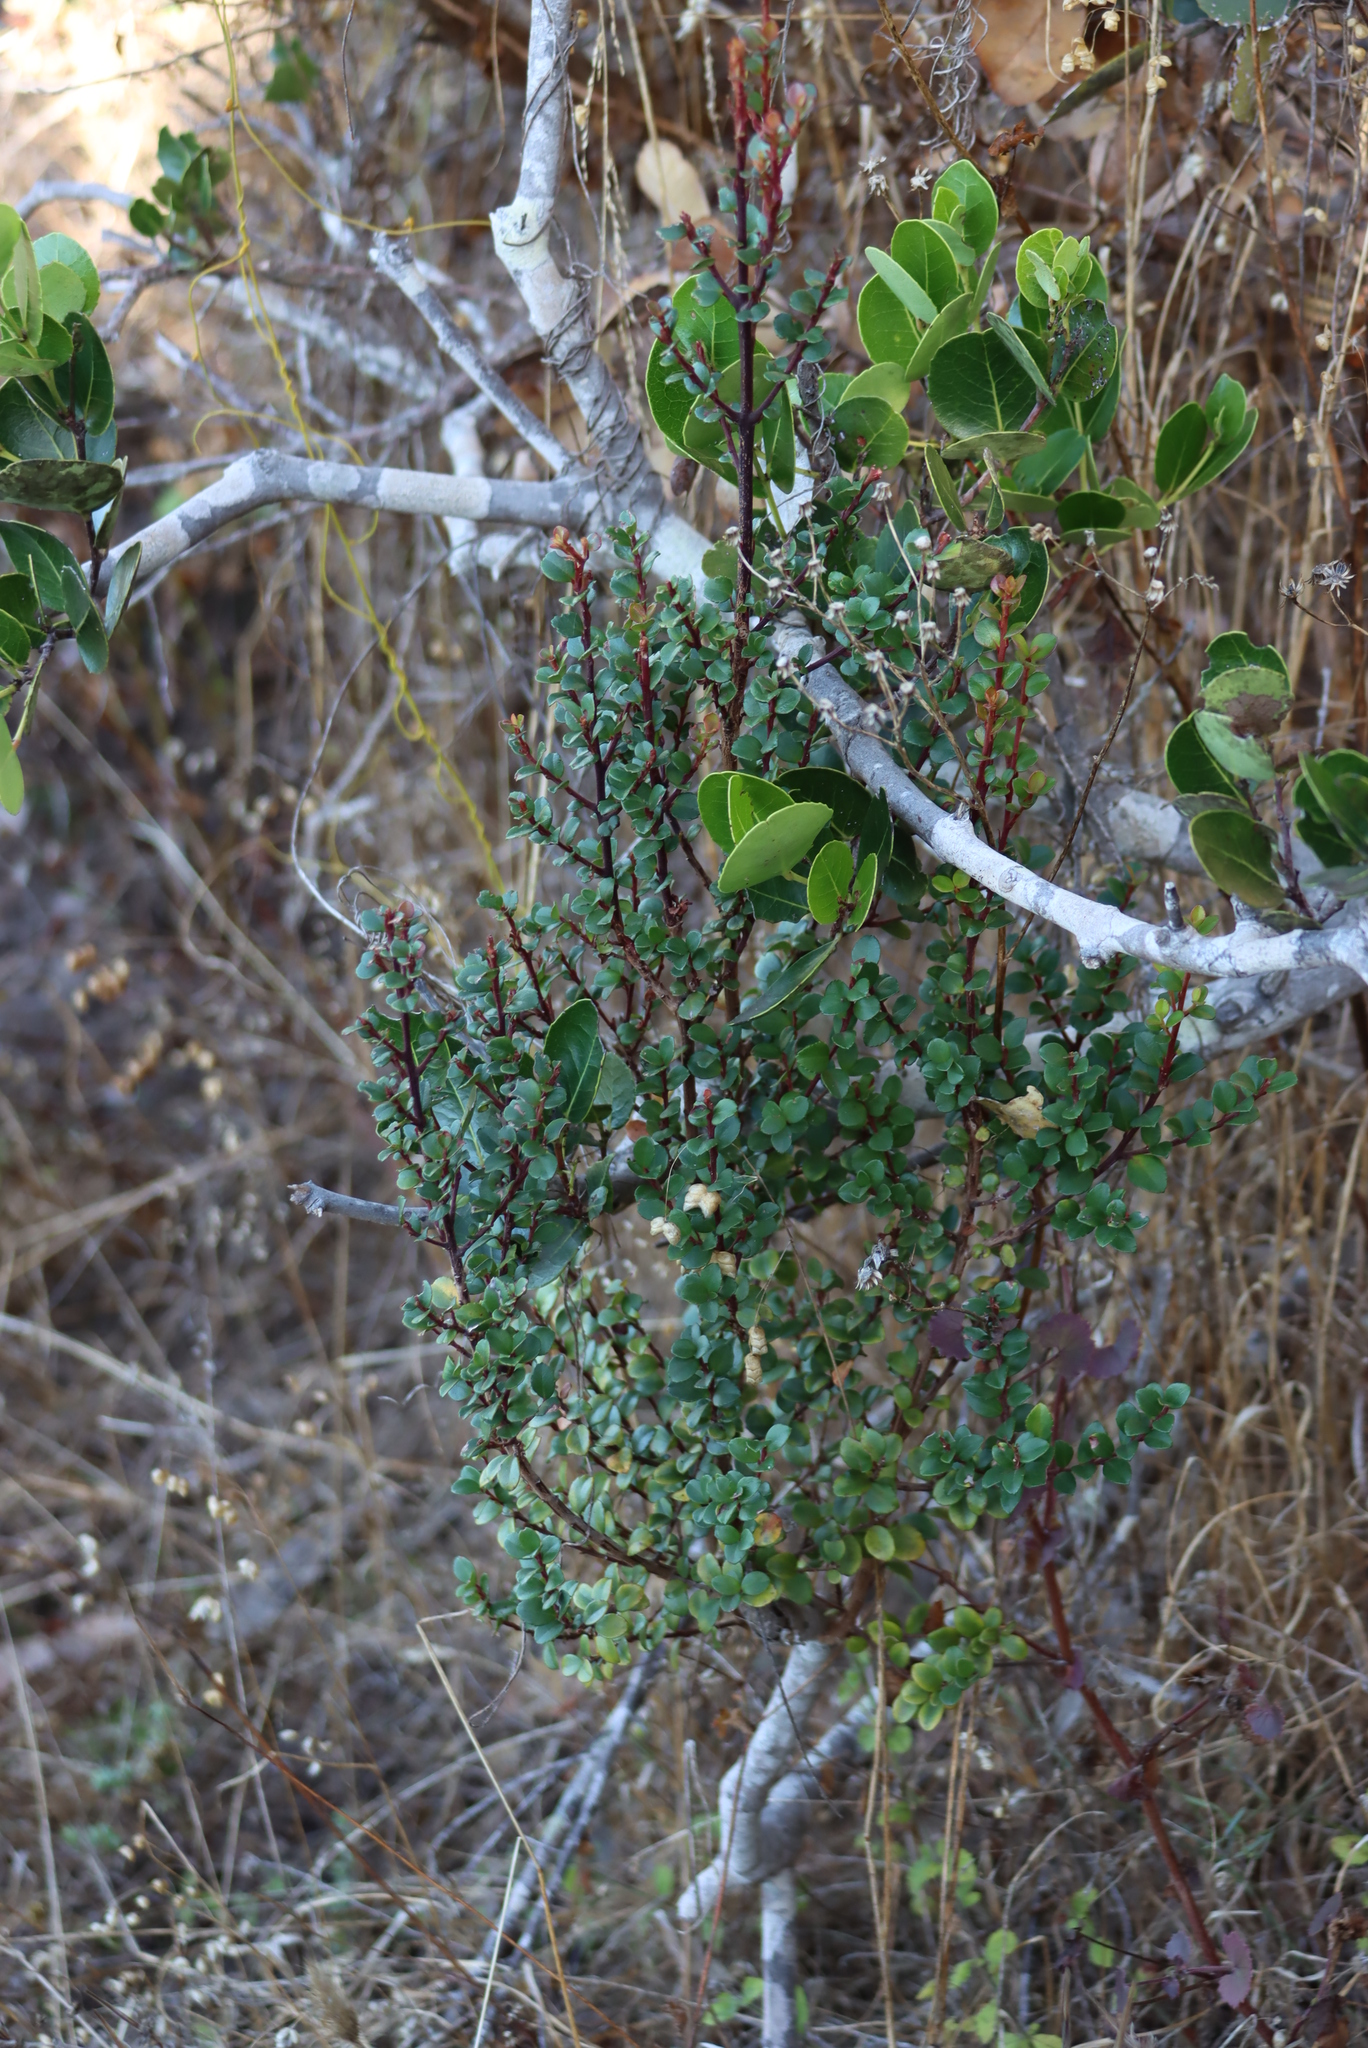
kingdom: Plantae
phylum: Tracheophyta
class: Magnoliopsida
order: Ericales
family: Primulaceae
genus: Myrsine
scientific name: Myrsine africana
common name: African-boxwood
